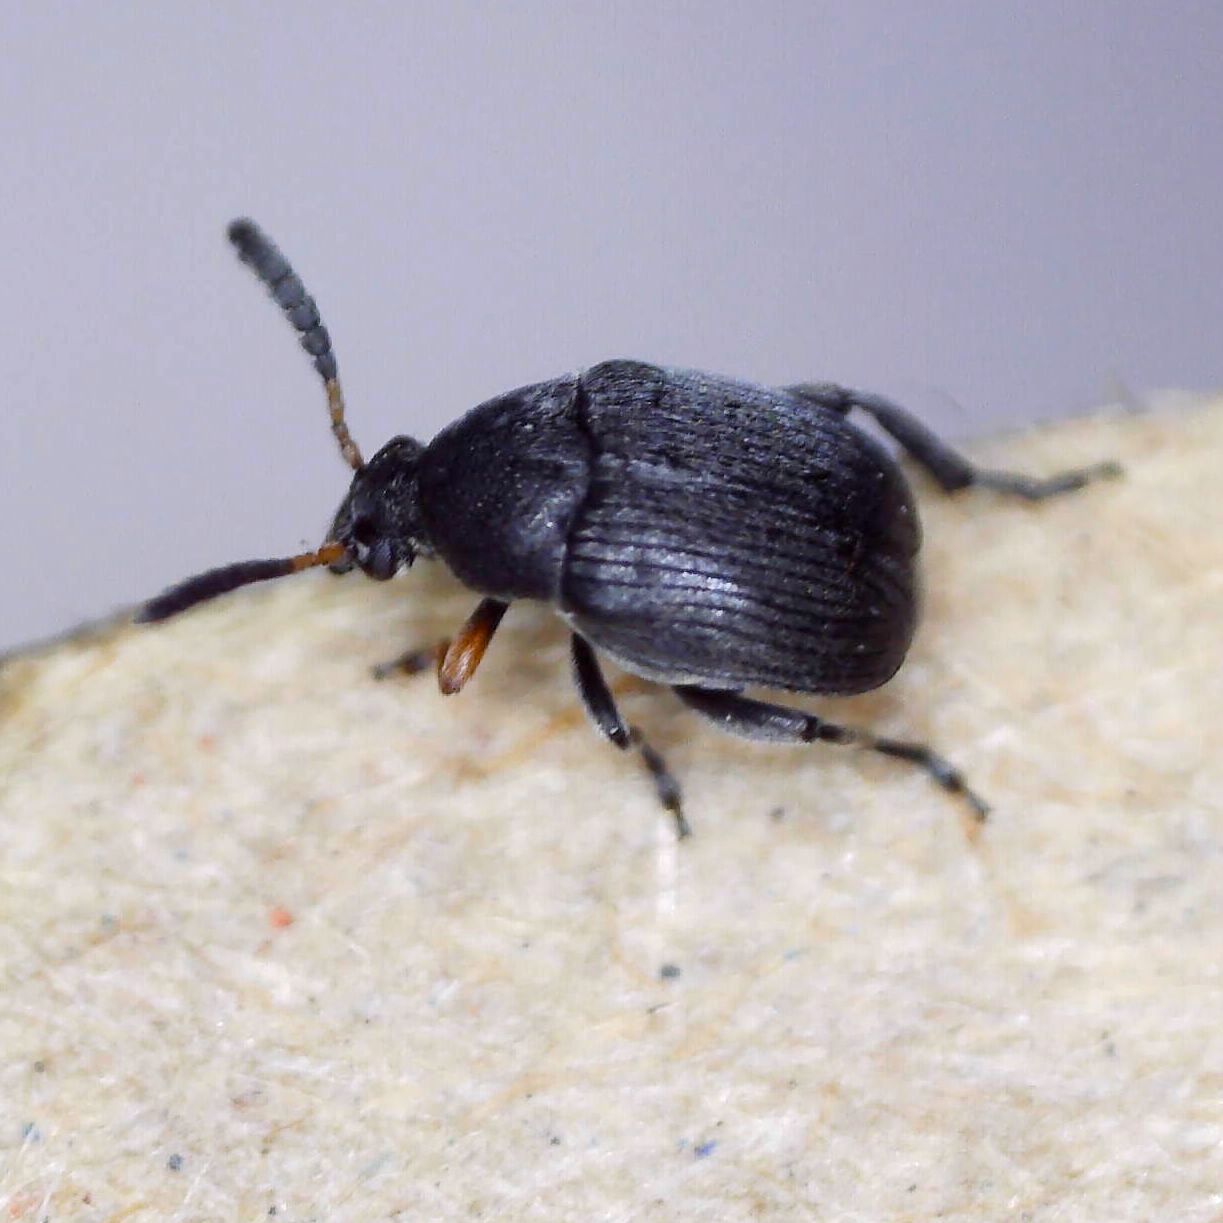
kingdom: Animalia
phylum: Arthropoda
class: Insecta
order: Coleoptera
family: Chrysomelidae
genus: Bruchus
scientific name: Bruchus loti
